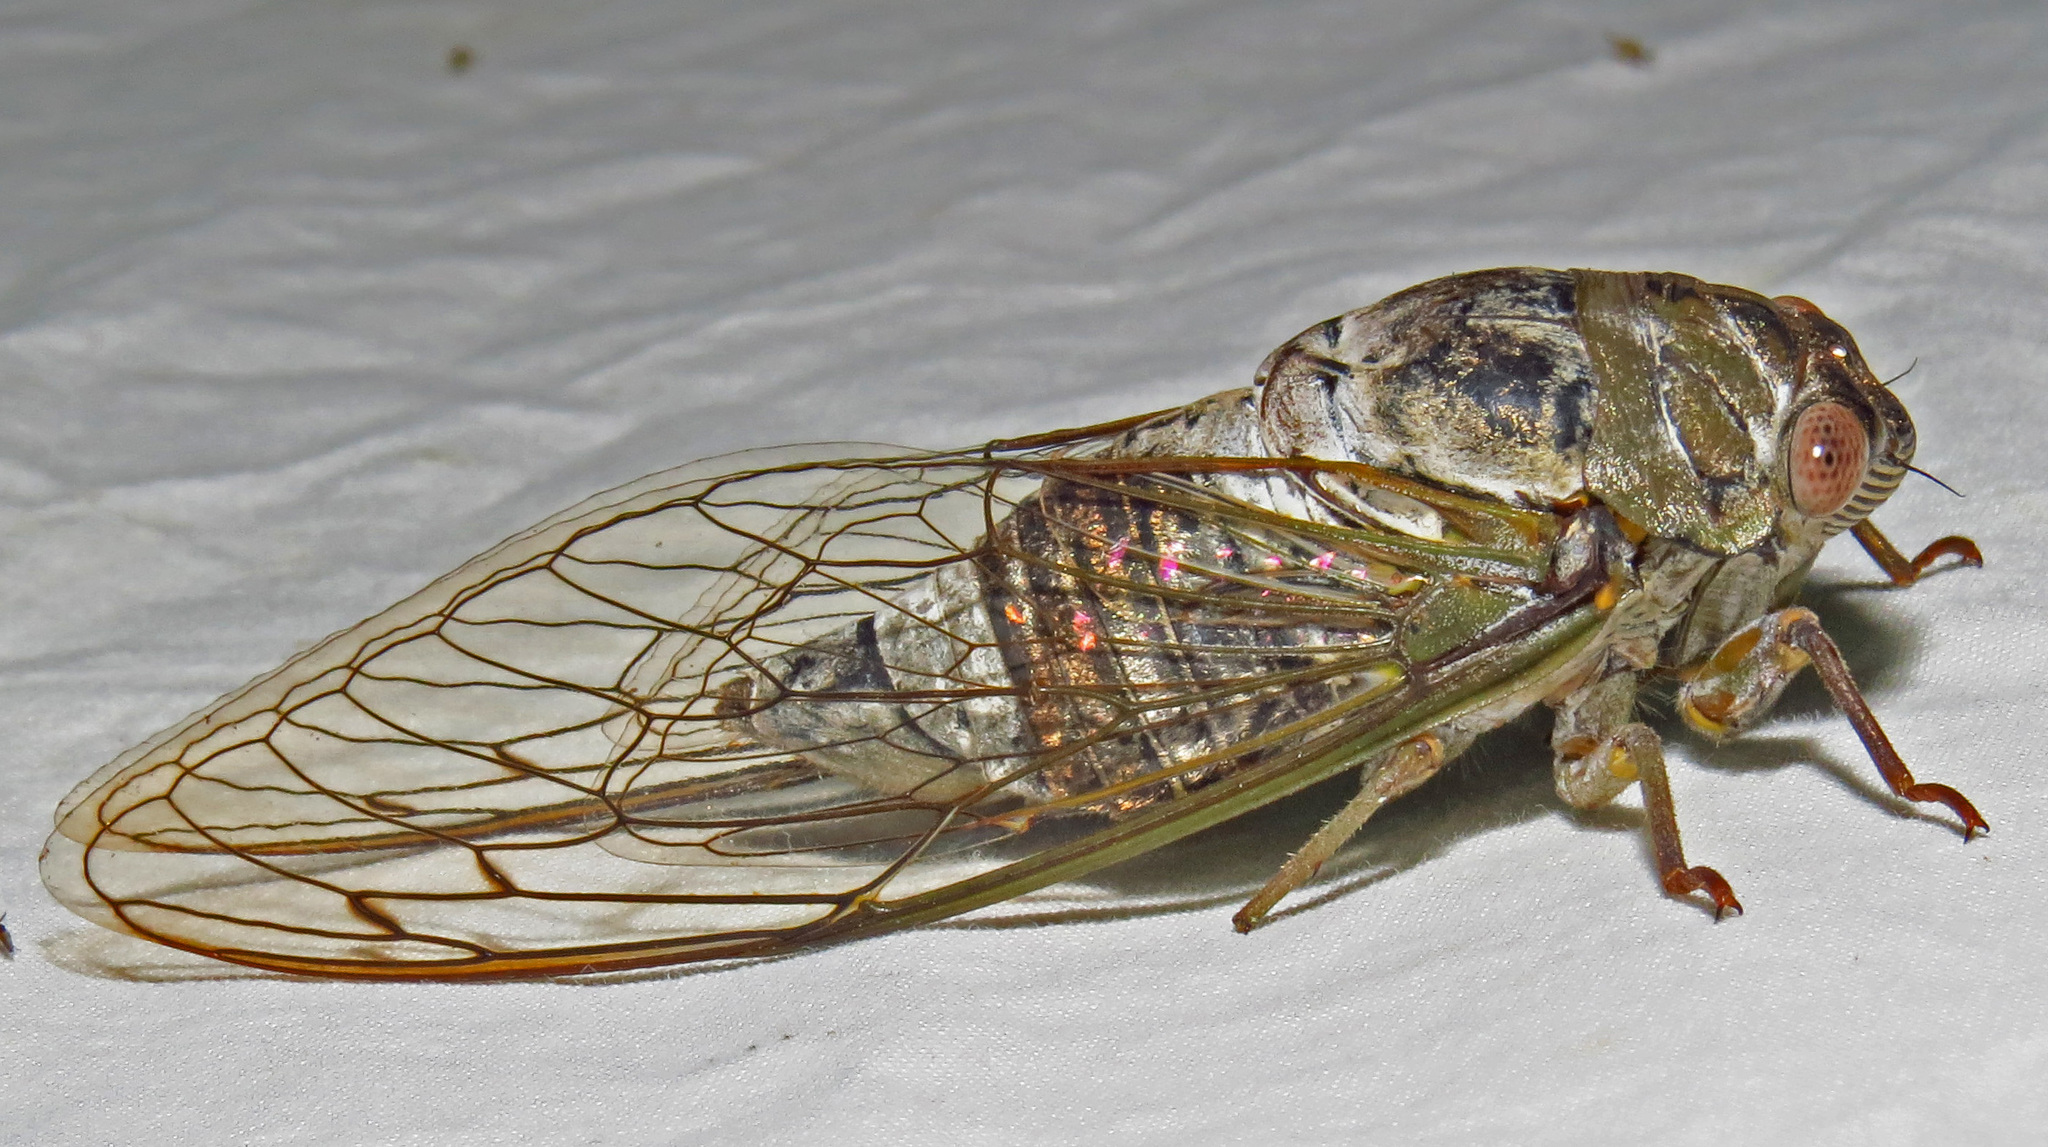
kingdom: Animalia
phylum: Arthropoda
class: Insecta
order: Hemiptera
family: Cicadidae
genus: Diceroprocta
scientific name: Diceroprocta grossa
